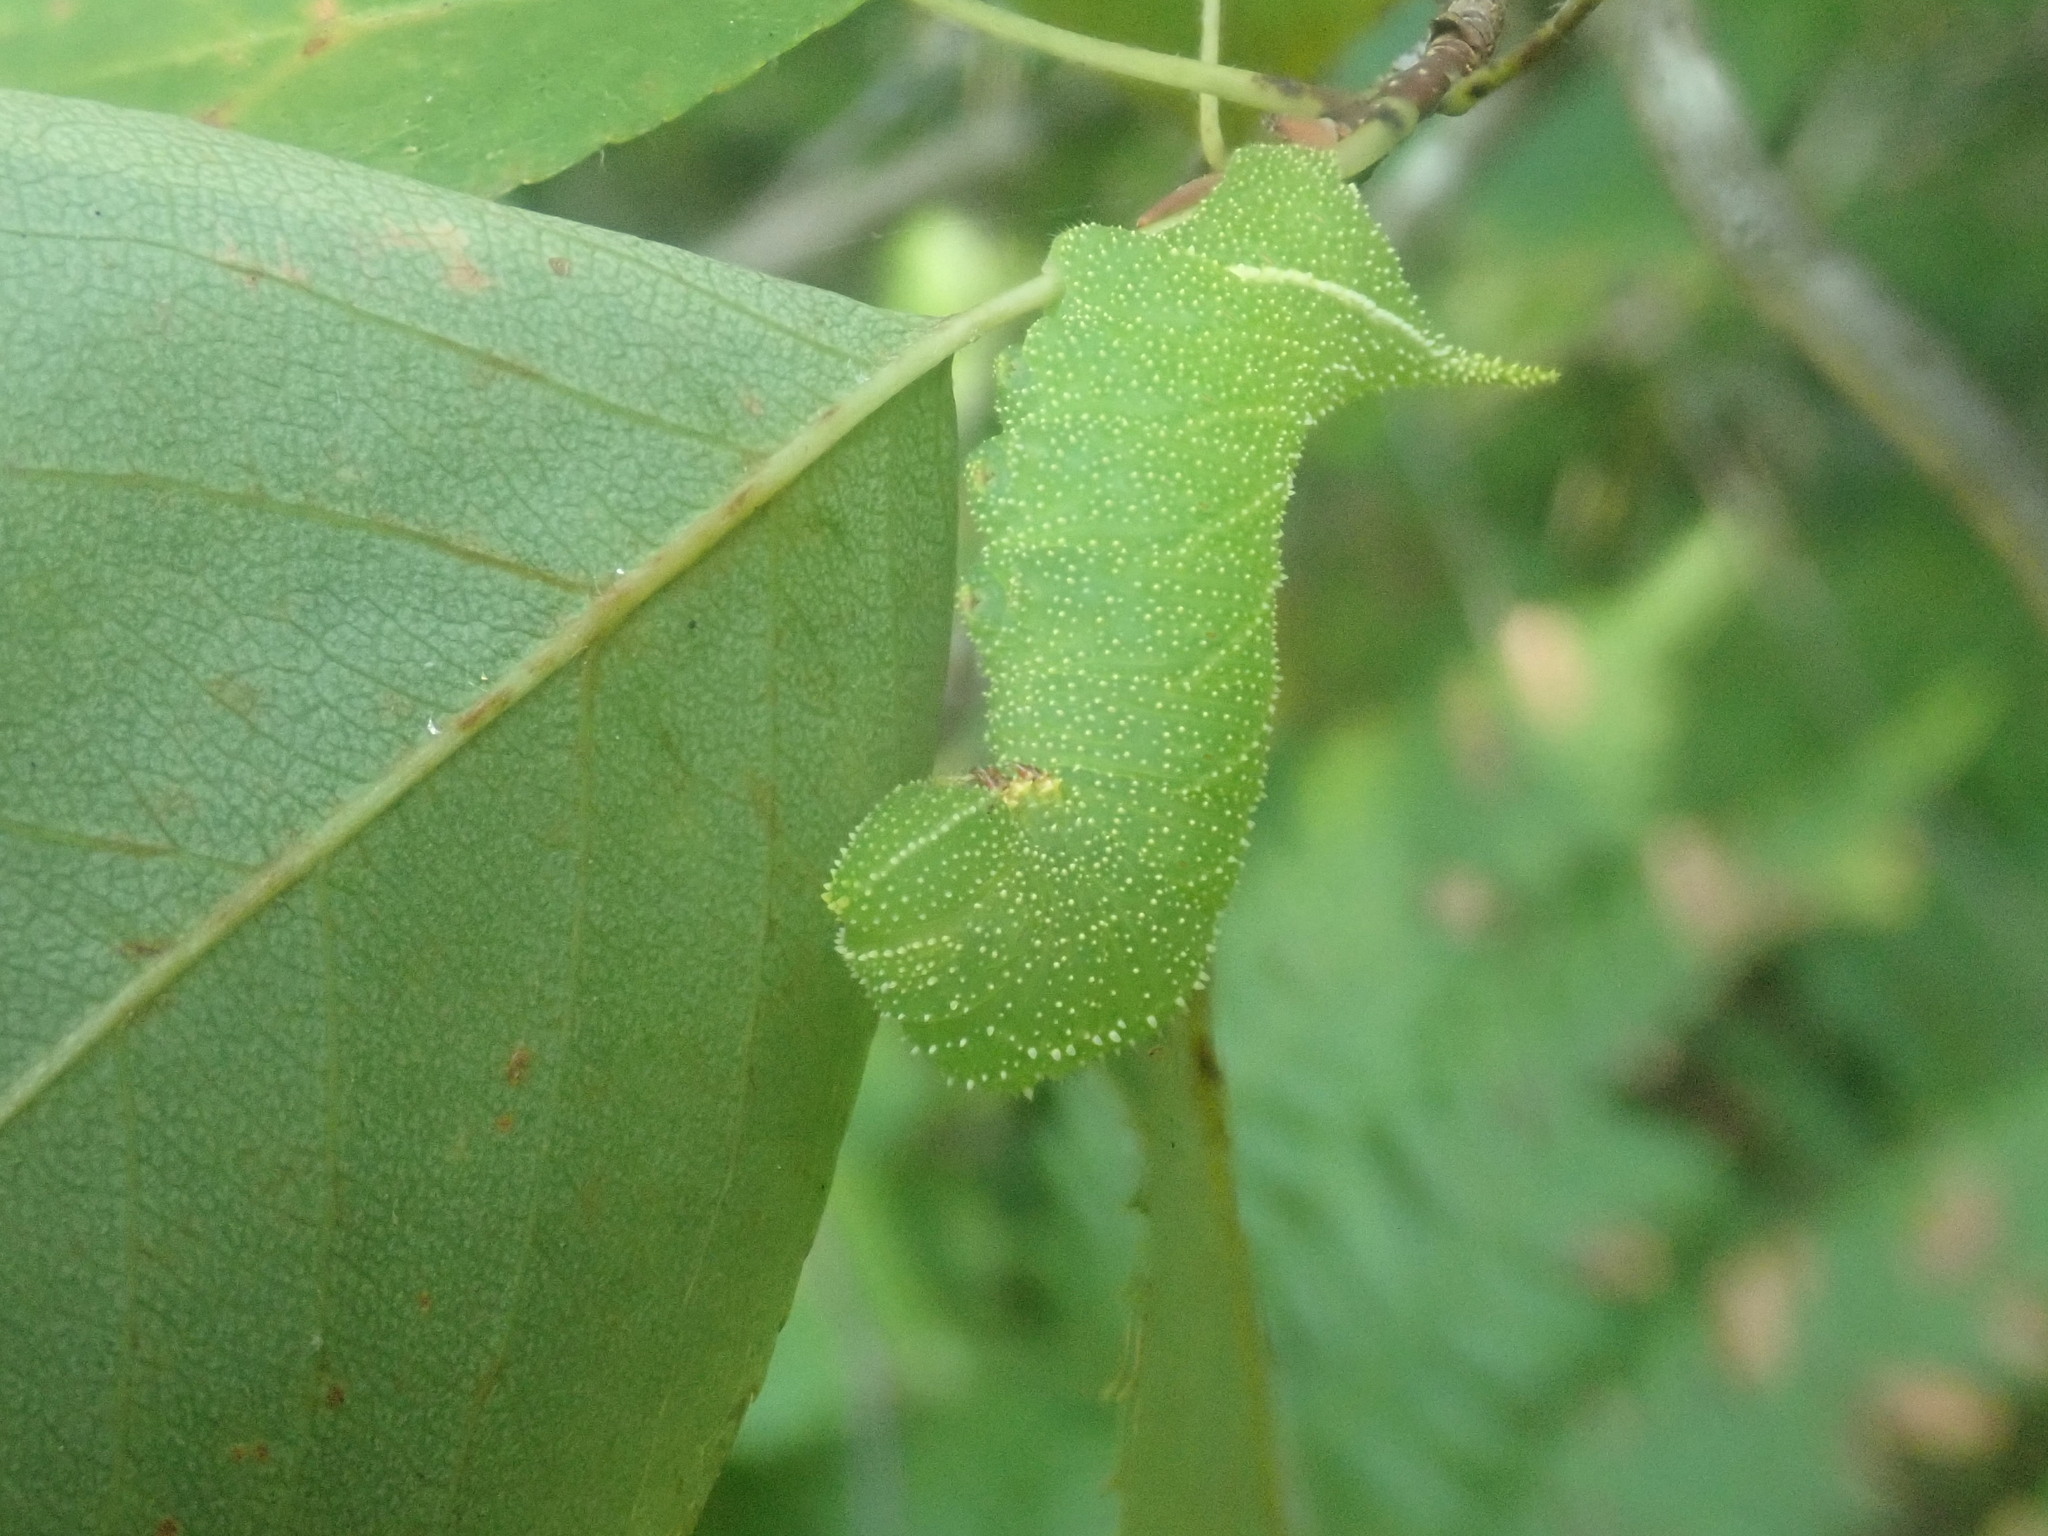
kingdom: Animalia
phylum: Arthropoda
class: Insecta
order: Lepidoptera
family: Sphingidae
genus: Paonias
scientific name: Paonias excaecata
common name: Blind-eyed sphinx
